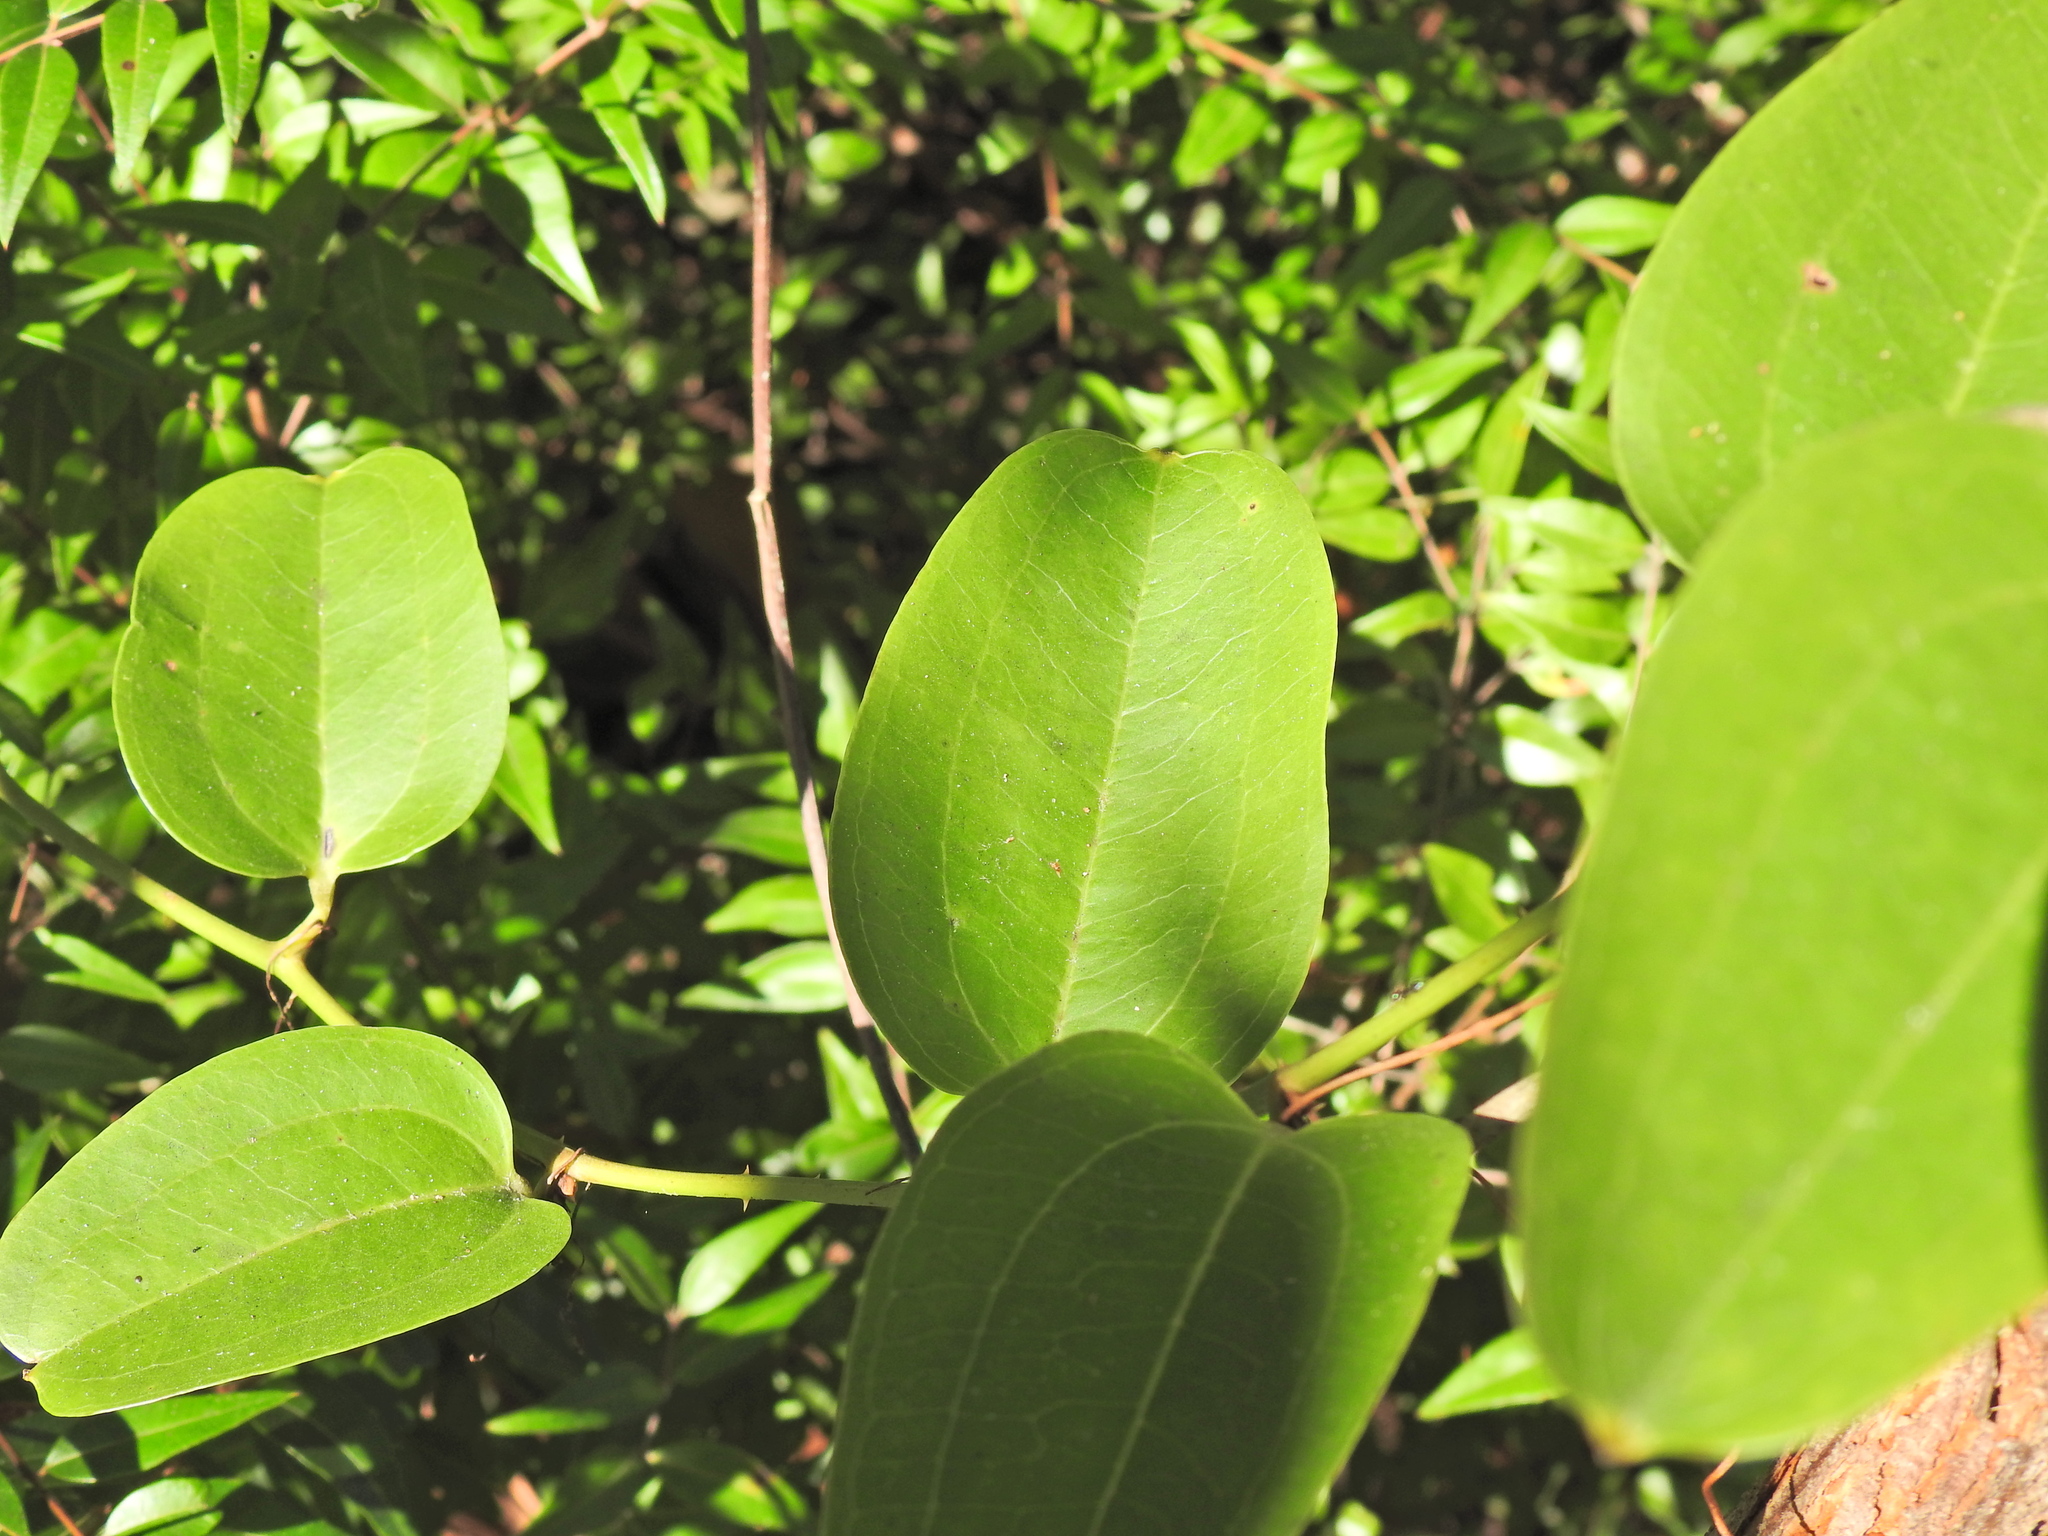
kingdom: Plantae
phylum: Tracheophyta
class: Liliopsida
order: Liliales
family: Smilacaceae
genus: Smilax
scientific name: Smilax australis
